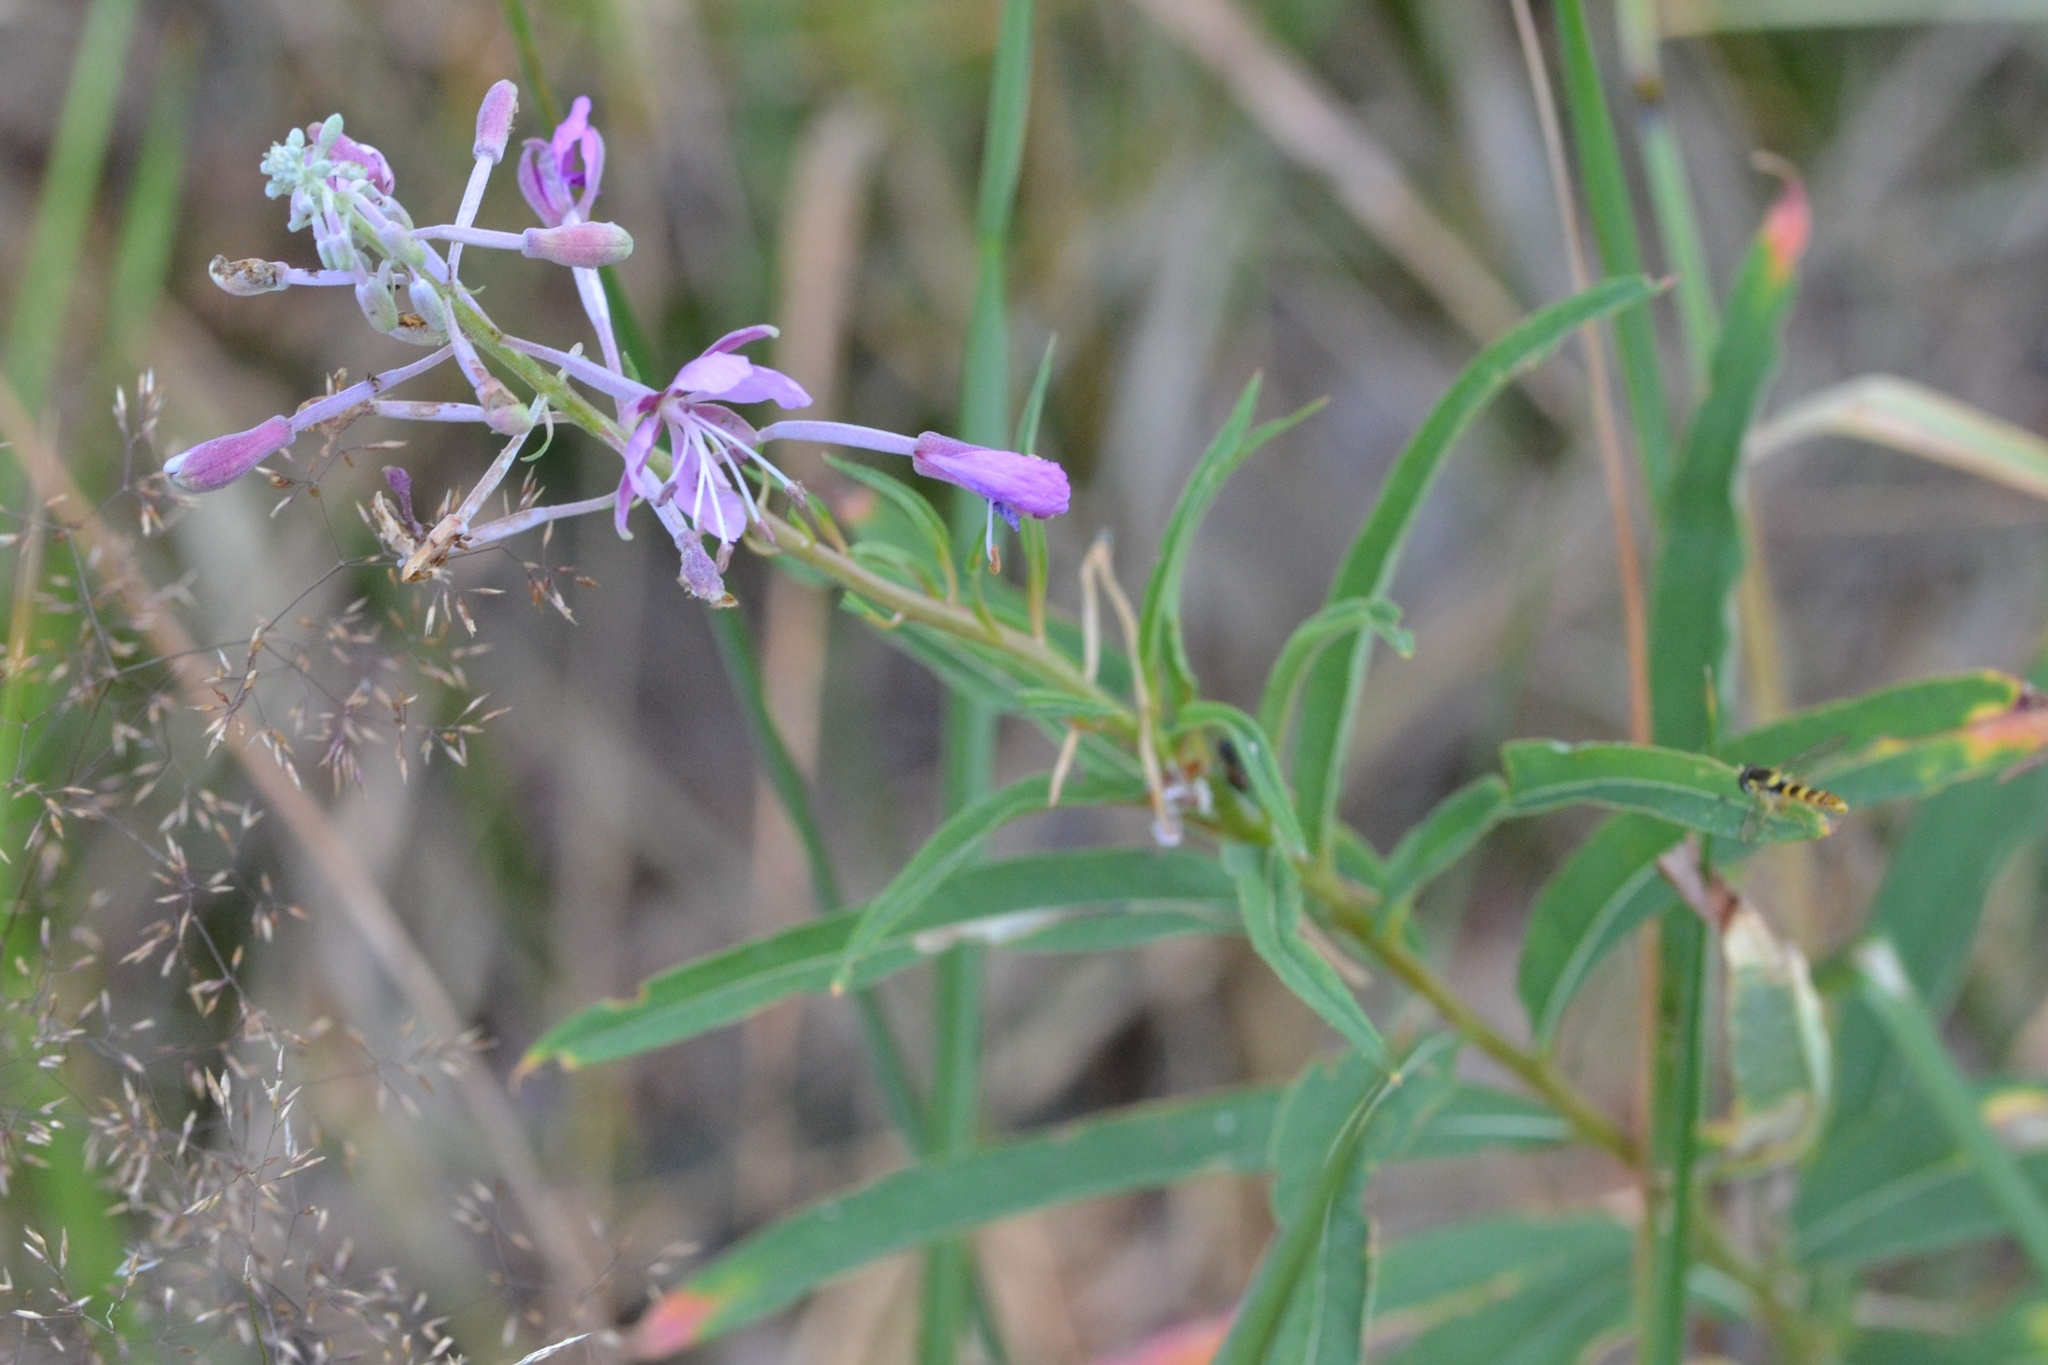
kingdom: Plantae
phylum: Tracheophyta
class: Magnoliopsida
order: Myrtales
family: Onagraceae
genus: Chamaenerion
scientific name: Chamaenerion angustifolium
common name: Fireweed
